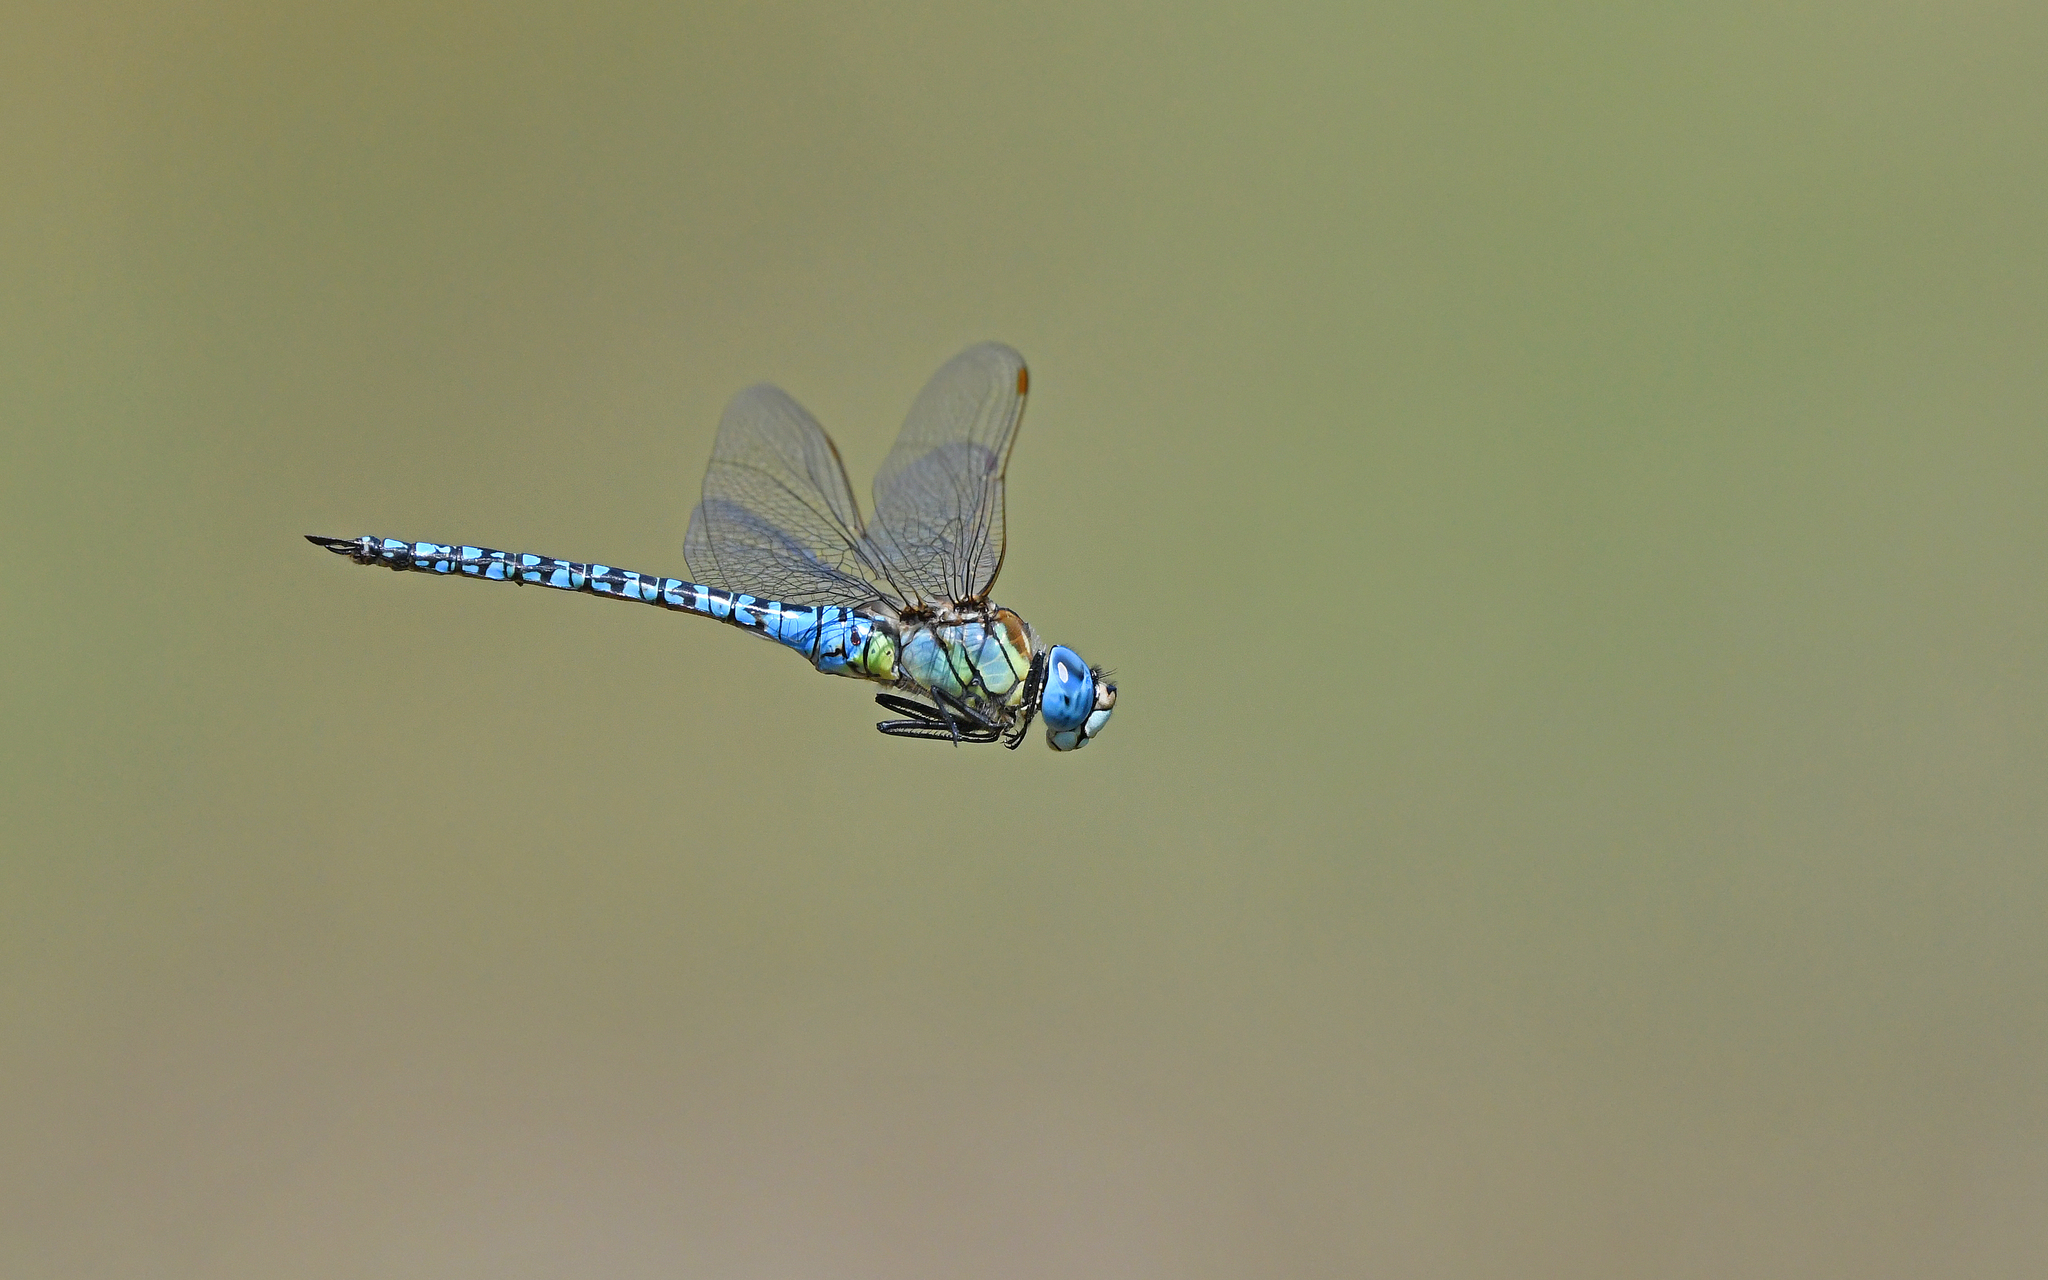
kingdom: Animalia
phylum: Arthropoda
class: Insecta
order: Odonata
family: Aeshnidae
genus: Aeshna
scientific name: Aeshna affinis
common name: Southern migrant hawker
